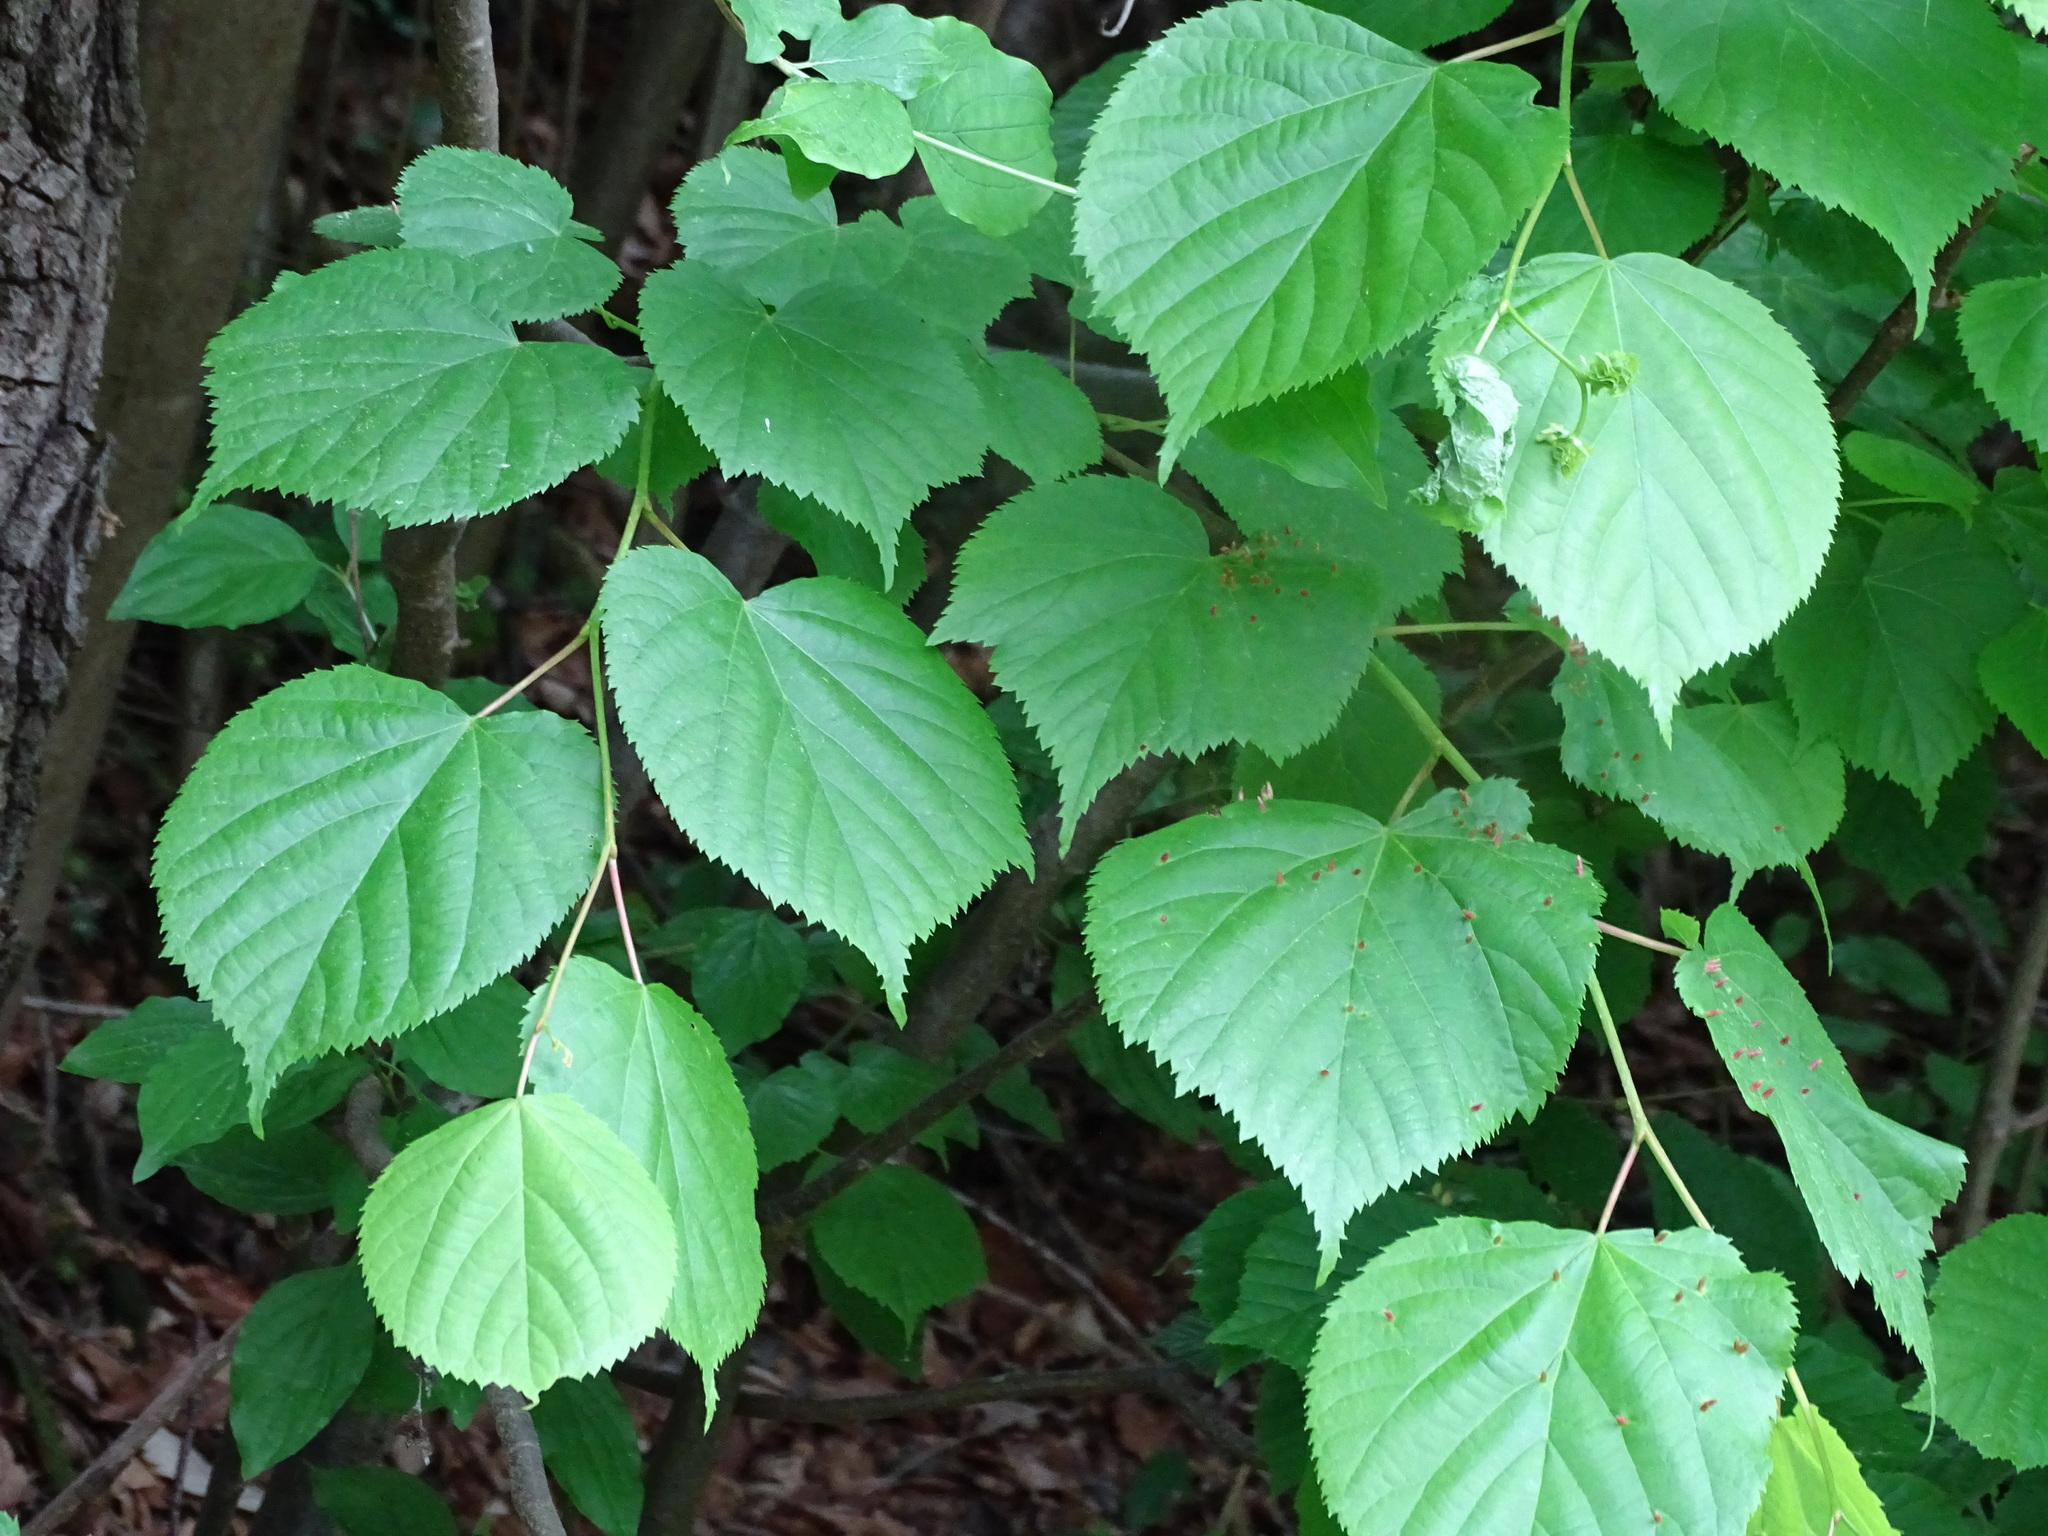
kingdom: Plantae
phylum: Tracheophyta
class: Magnoliopsida
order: Malvales
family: Malvaceae
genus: Tilia
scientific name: Tilia platyphyllos
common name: Large-leaved lime
